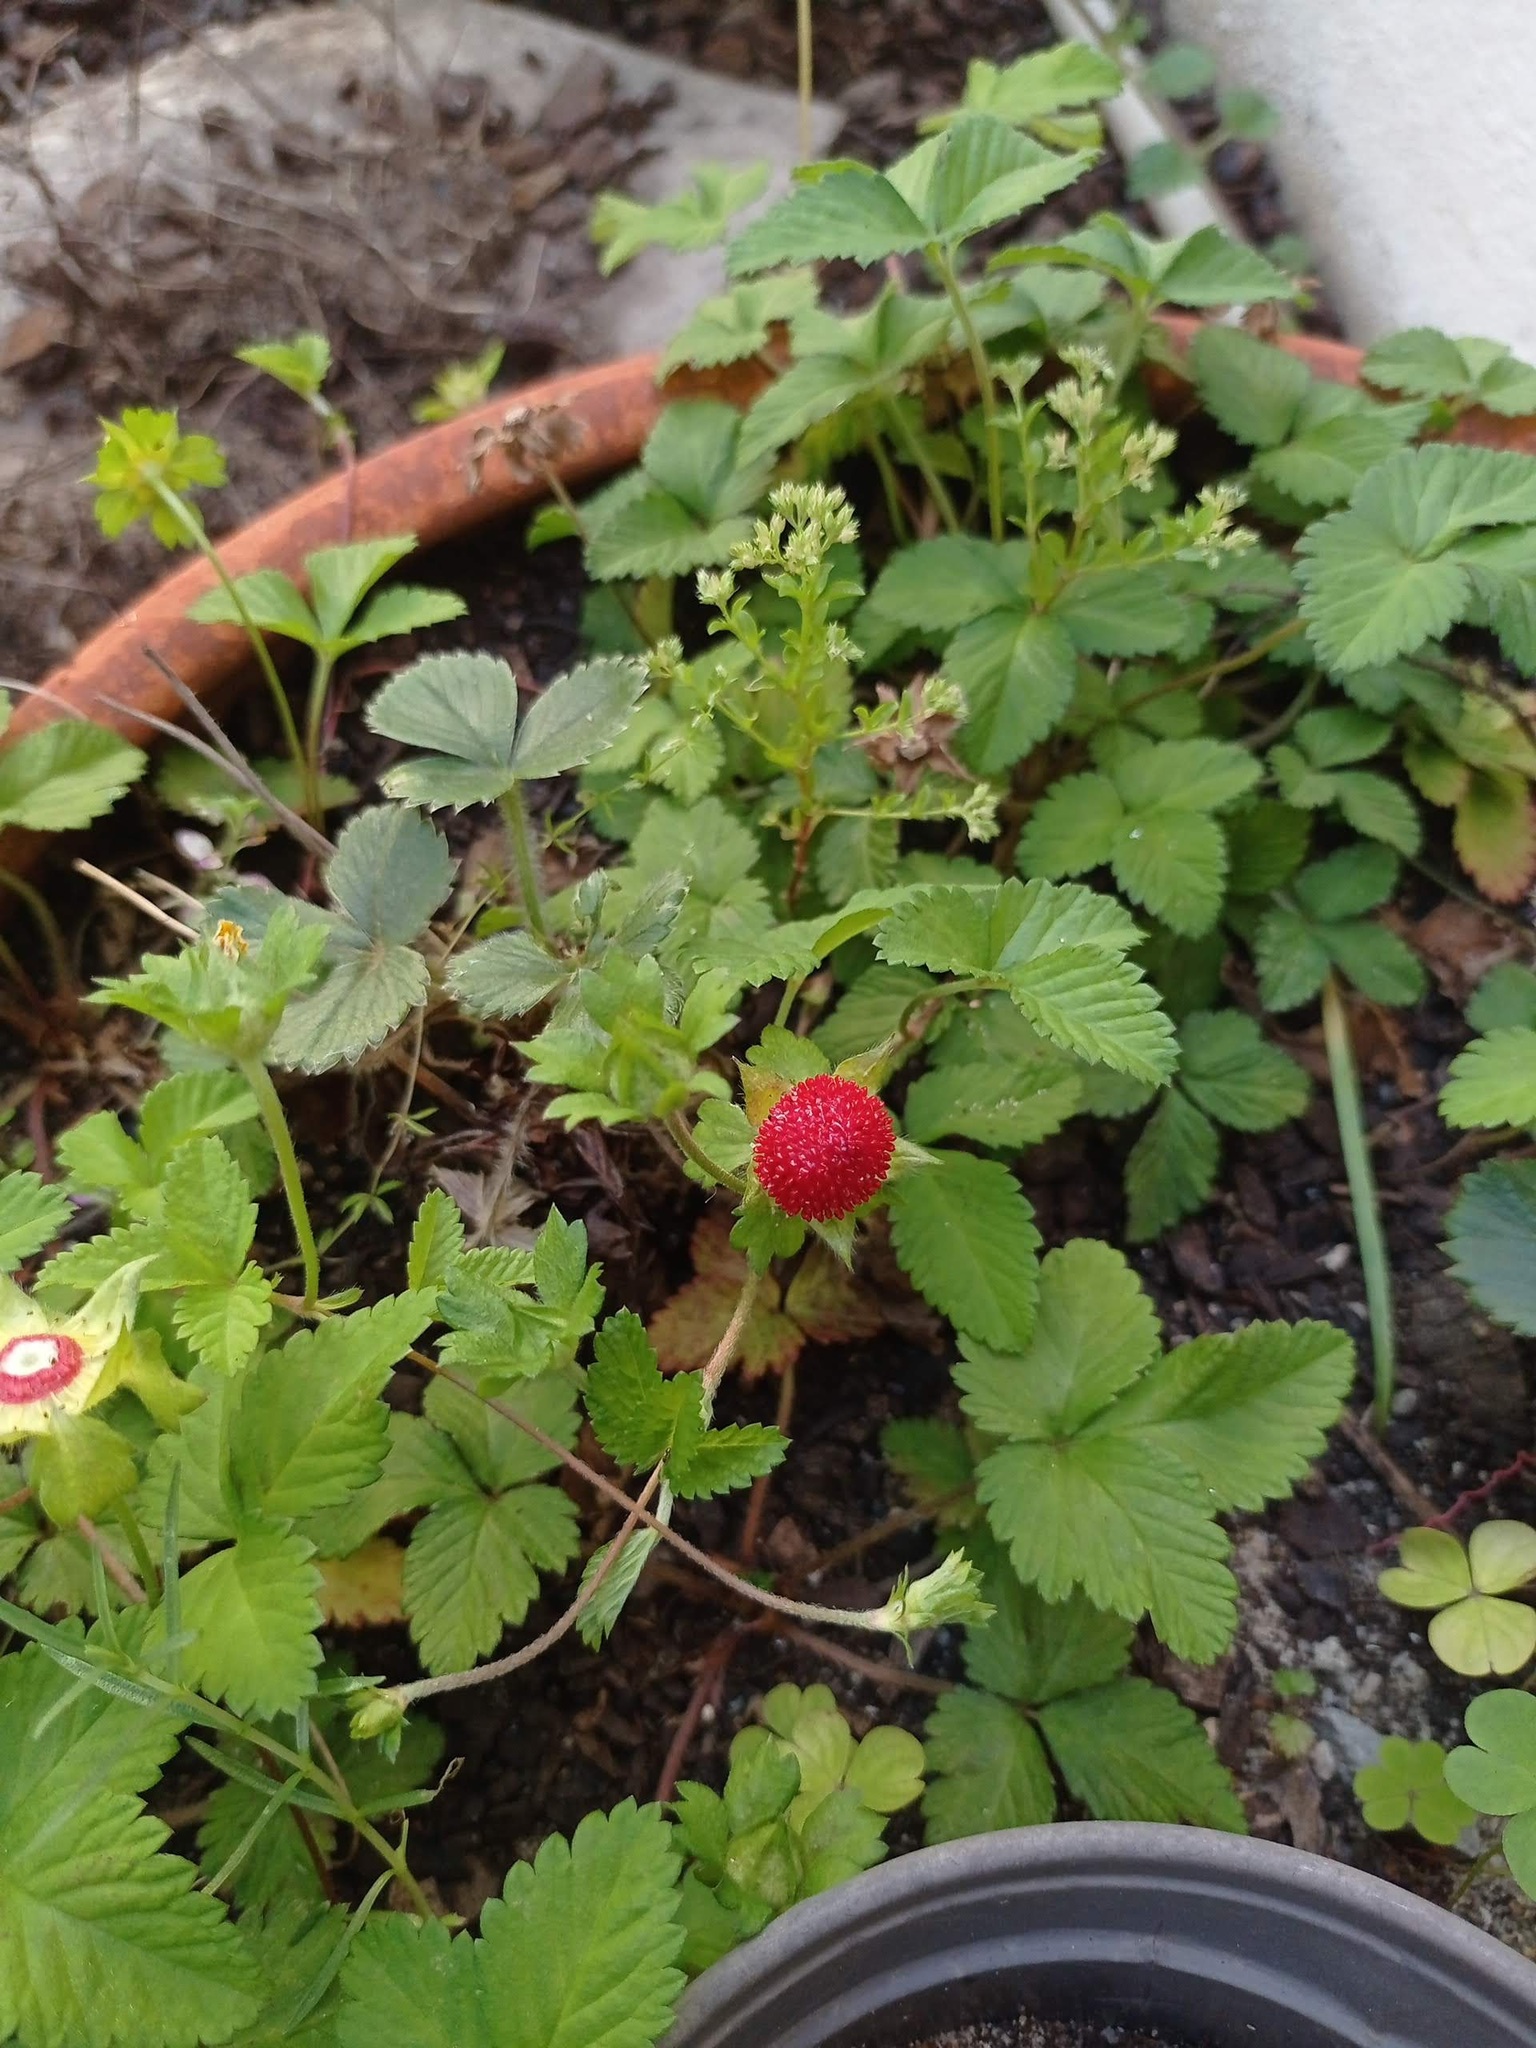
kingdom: Plantae
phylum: Tracheophyta
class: Magnoliopsida
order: Rosales
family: Rosaceae
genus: Potentilla
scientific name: Potentilla indica
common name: Yellow-flowered strawberry
